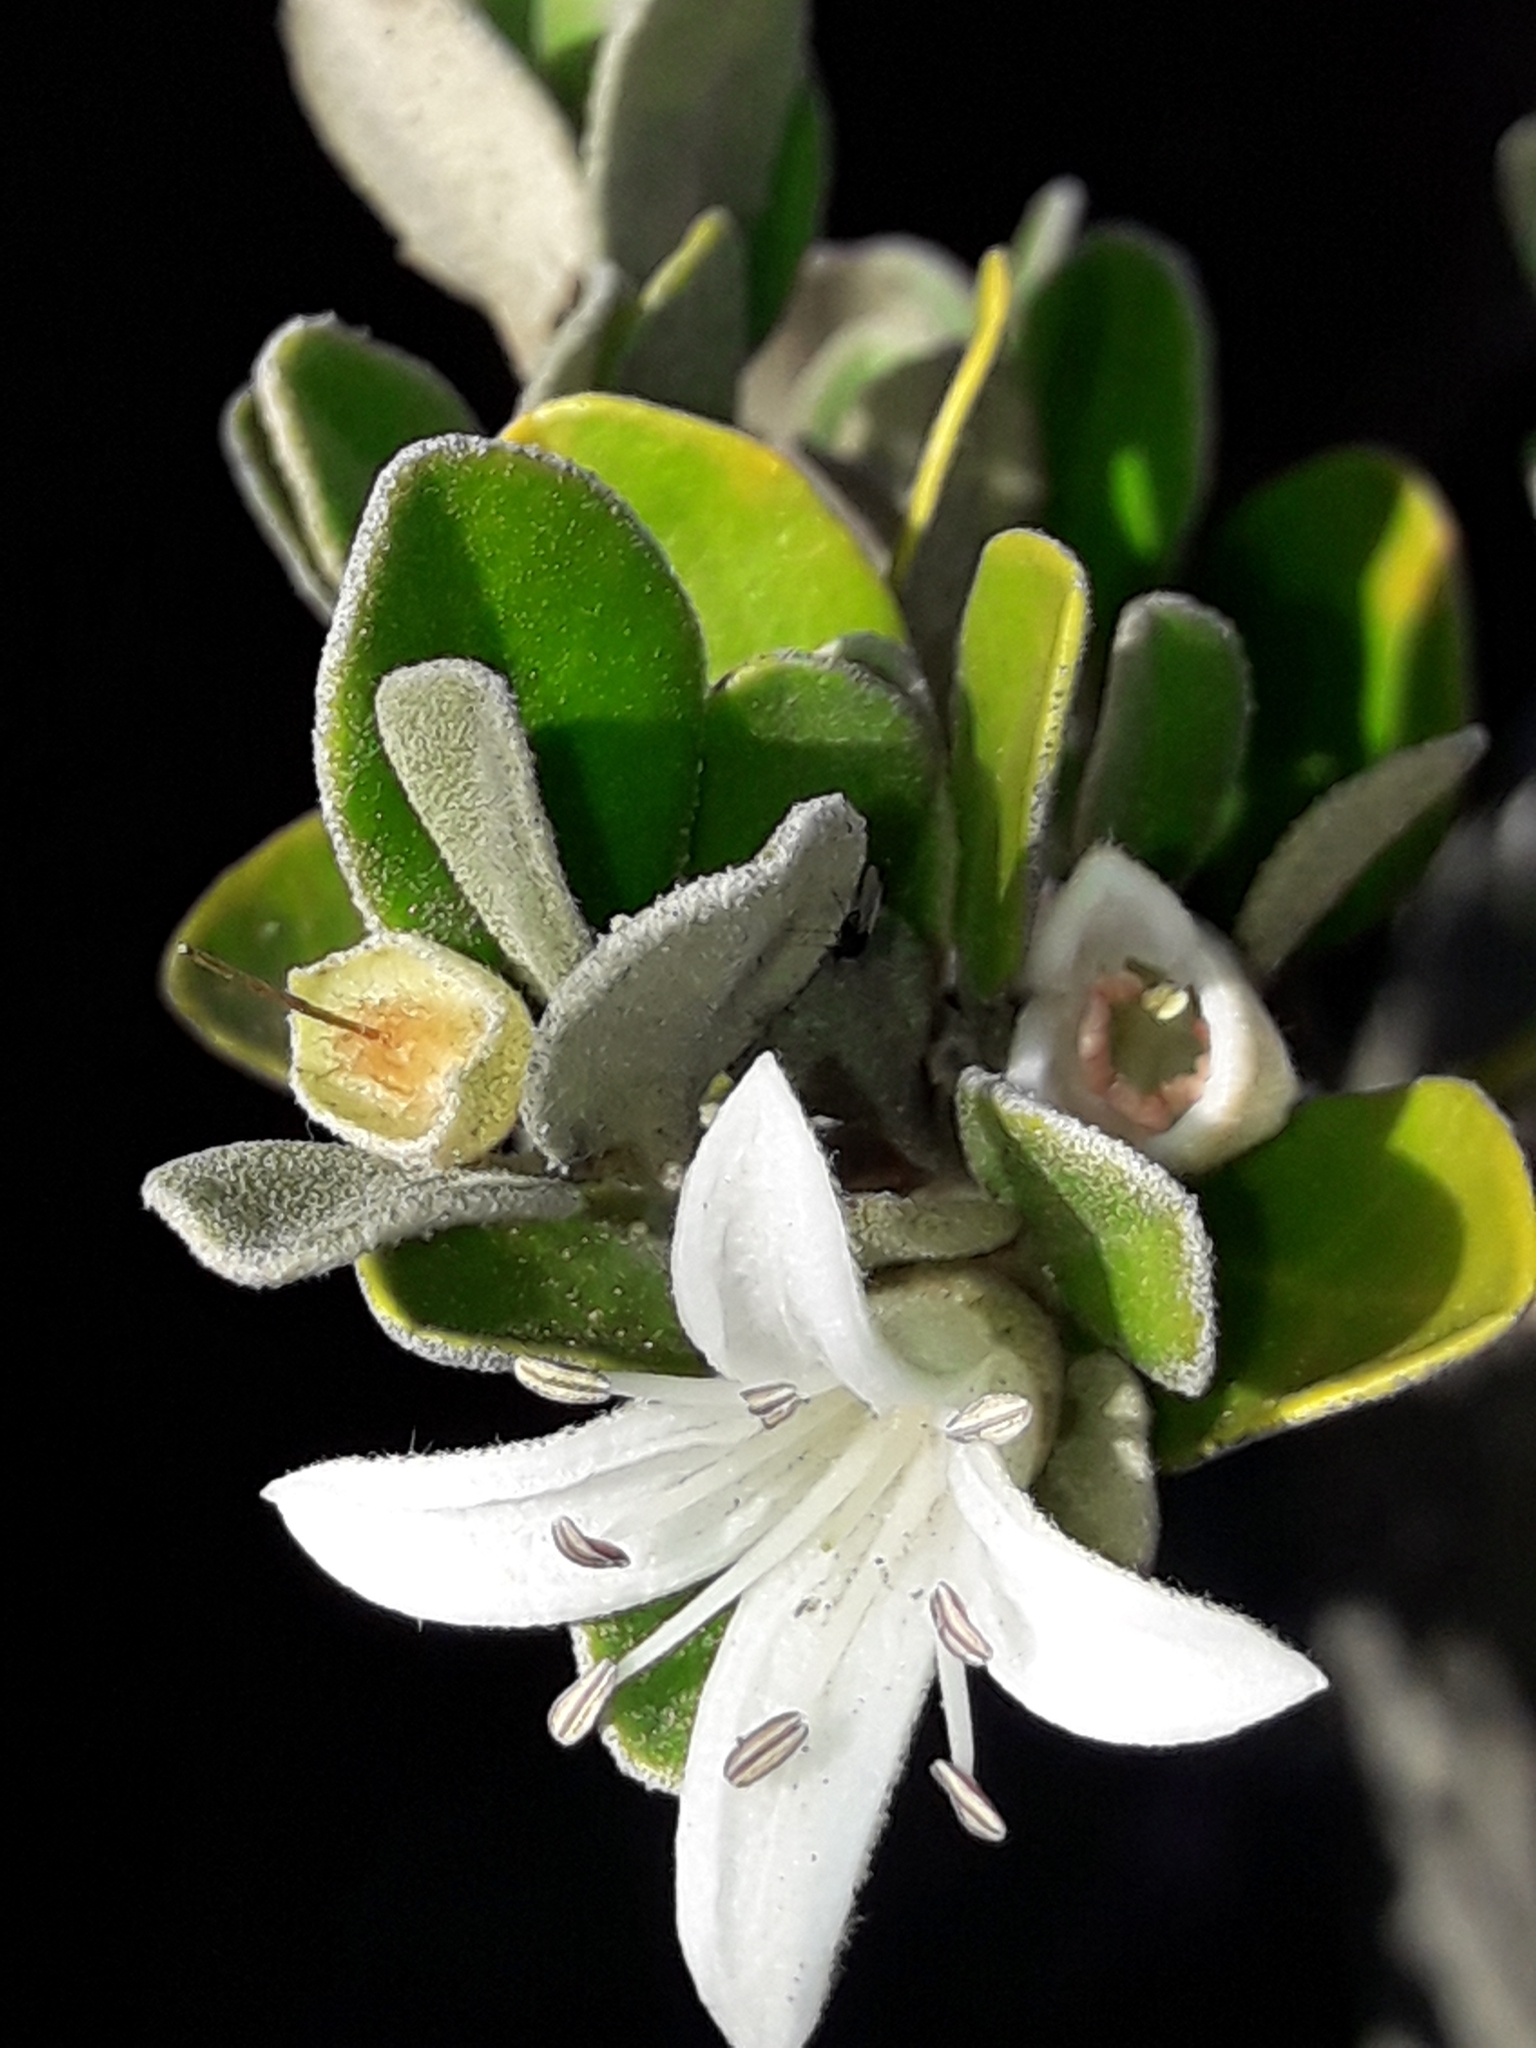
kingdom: Plantae
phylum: Tracheophyta
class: Magnoliopsida
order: Sapindales
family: Rutaceae
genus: Correa
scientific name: Correa alba
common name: White correa
